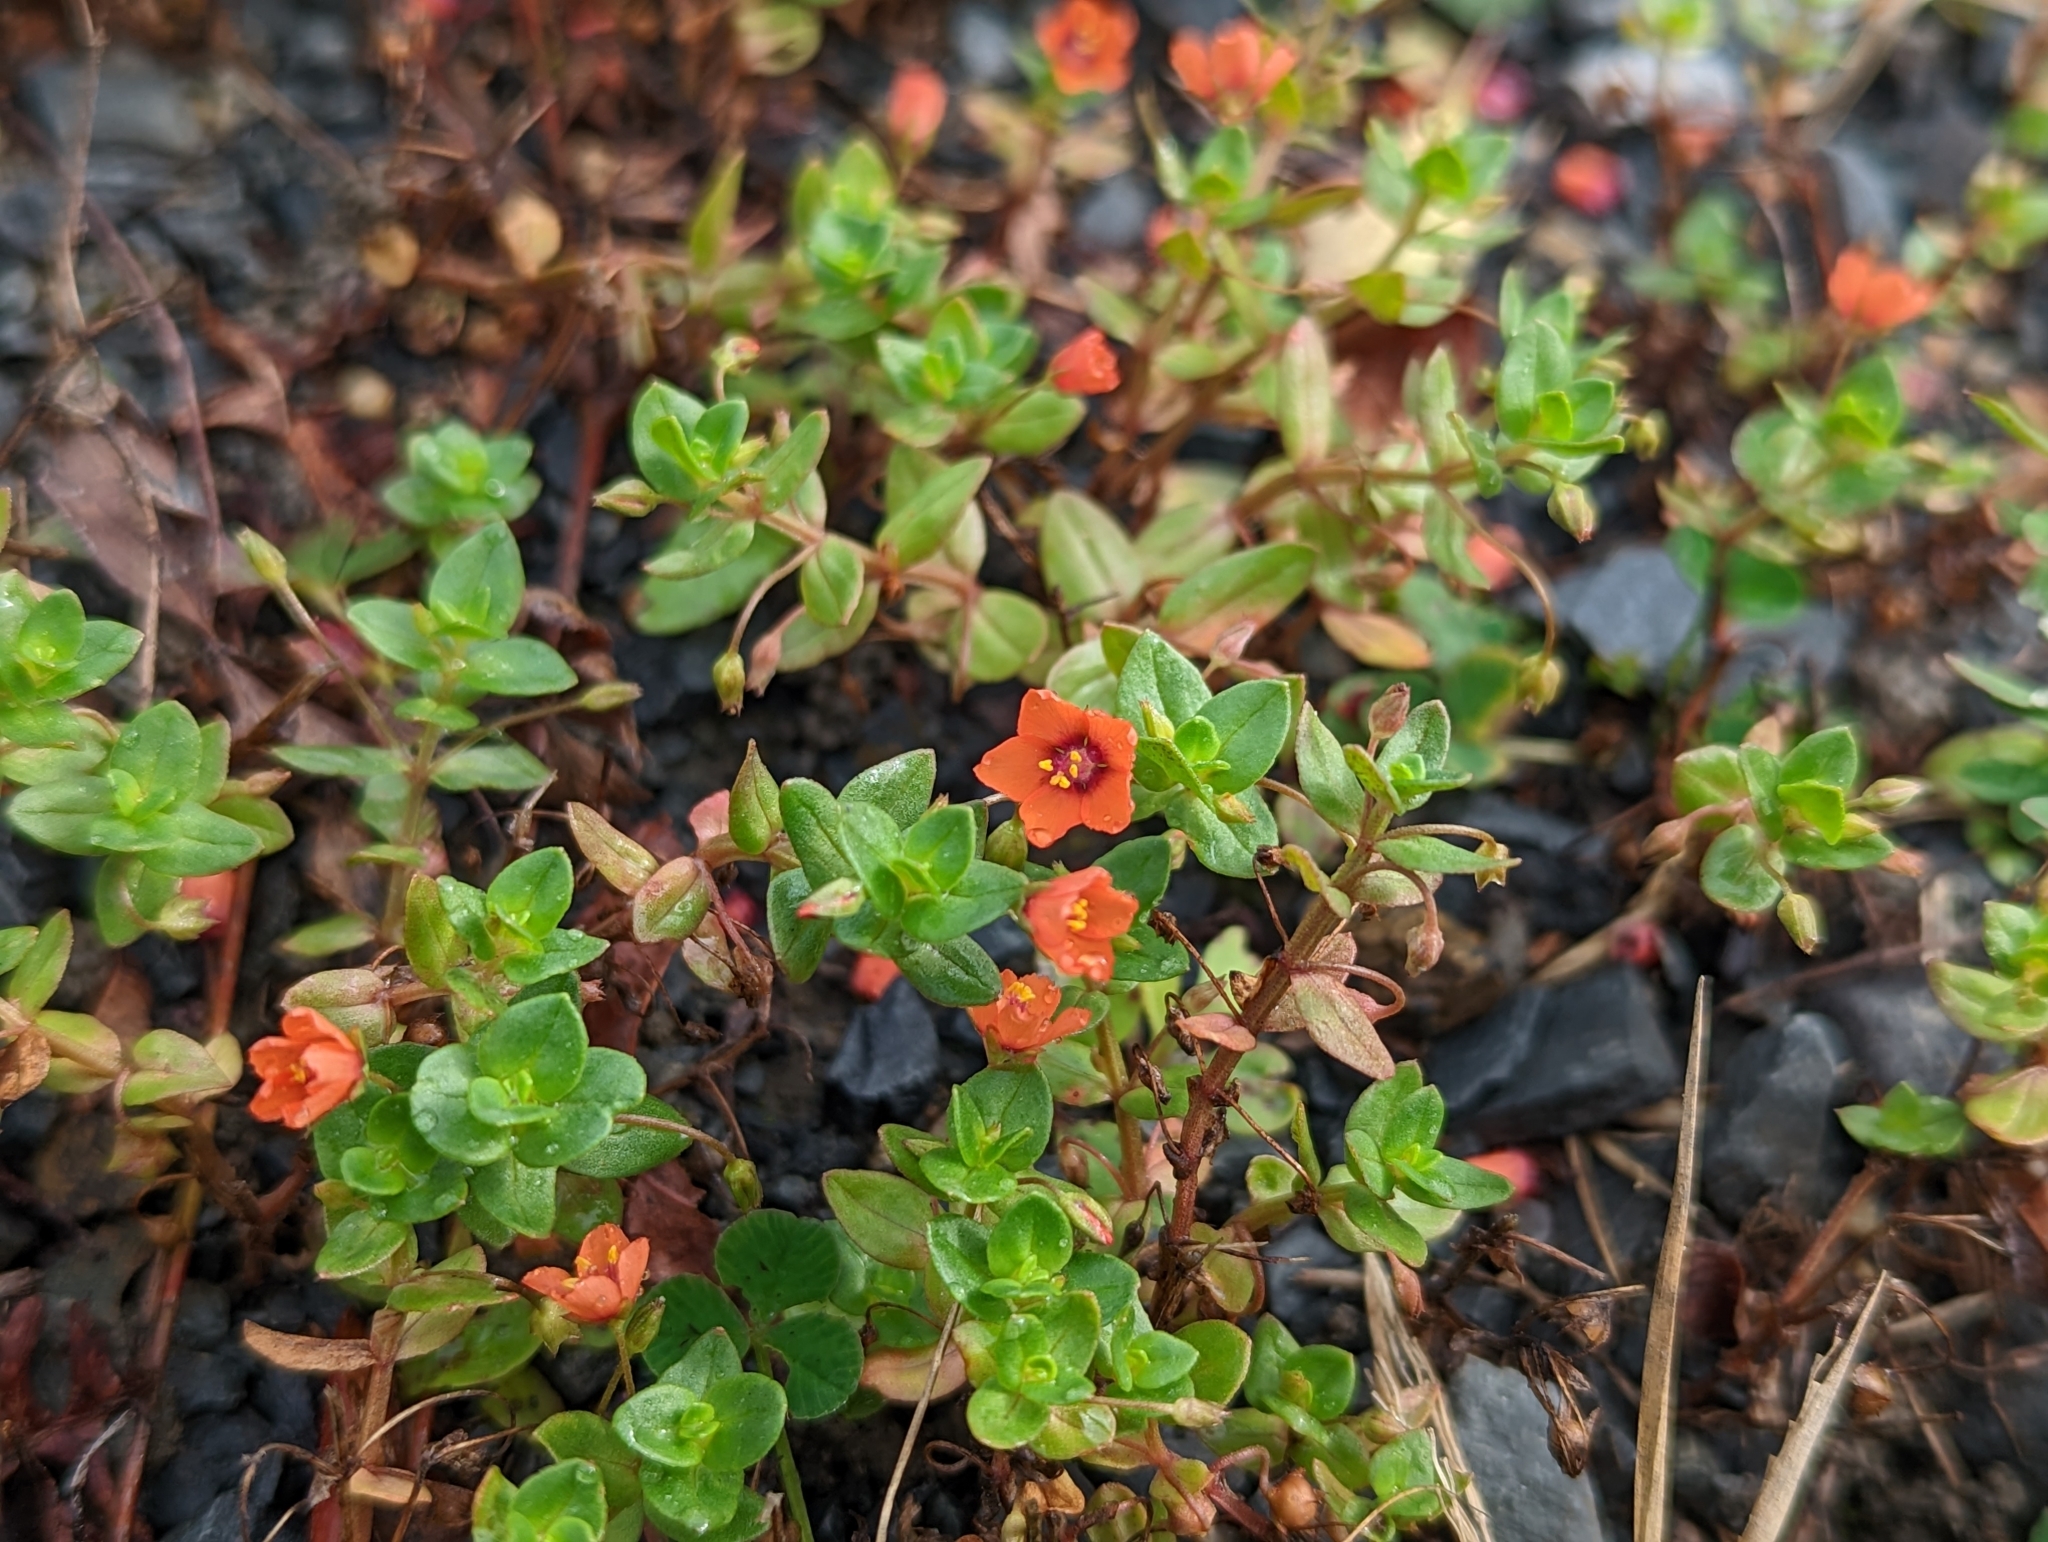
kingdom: Plantae
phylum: Tracheophyta
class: Magnoliopsida
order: Ericales
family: Primulaceae
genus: Lysimachia
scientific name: Lysimachia arvensis
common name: Scarlet pimpernel
